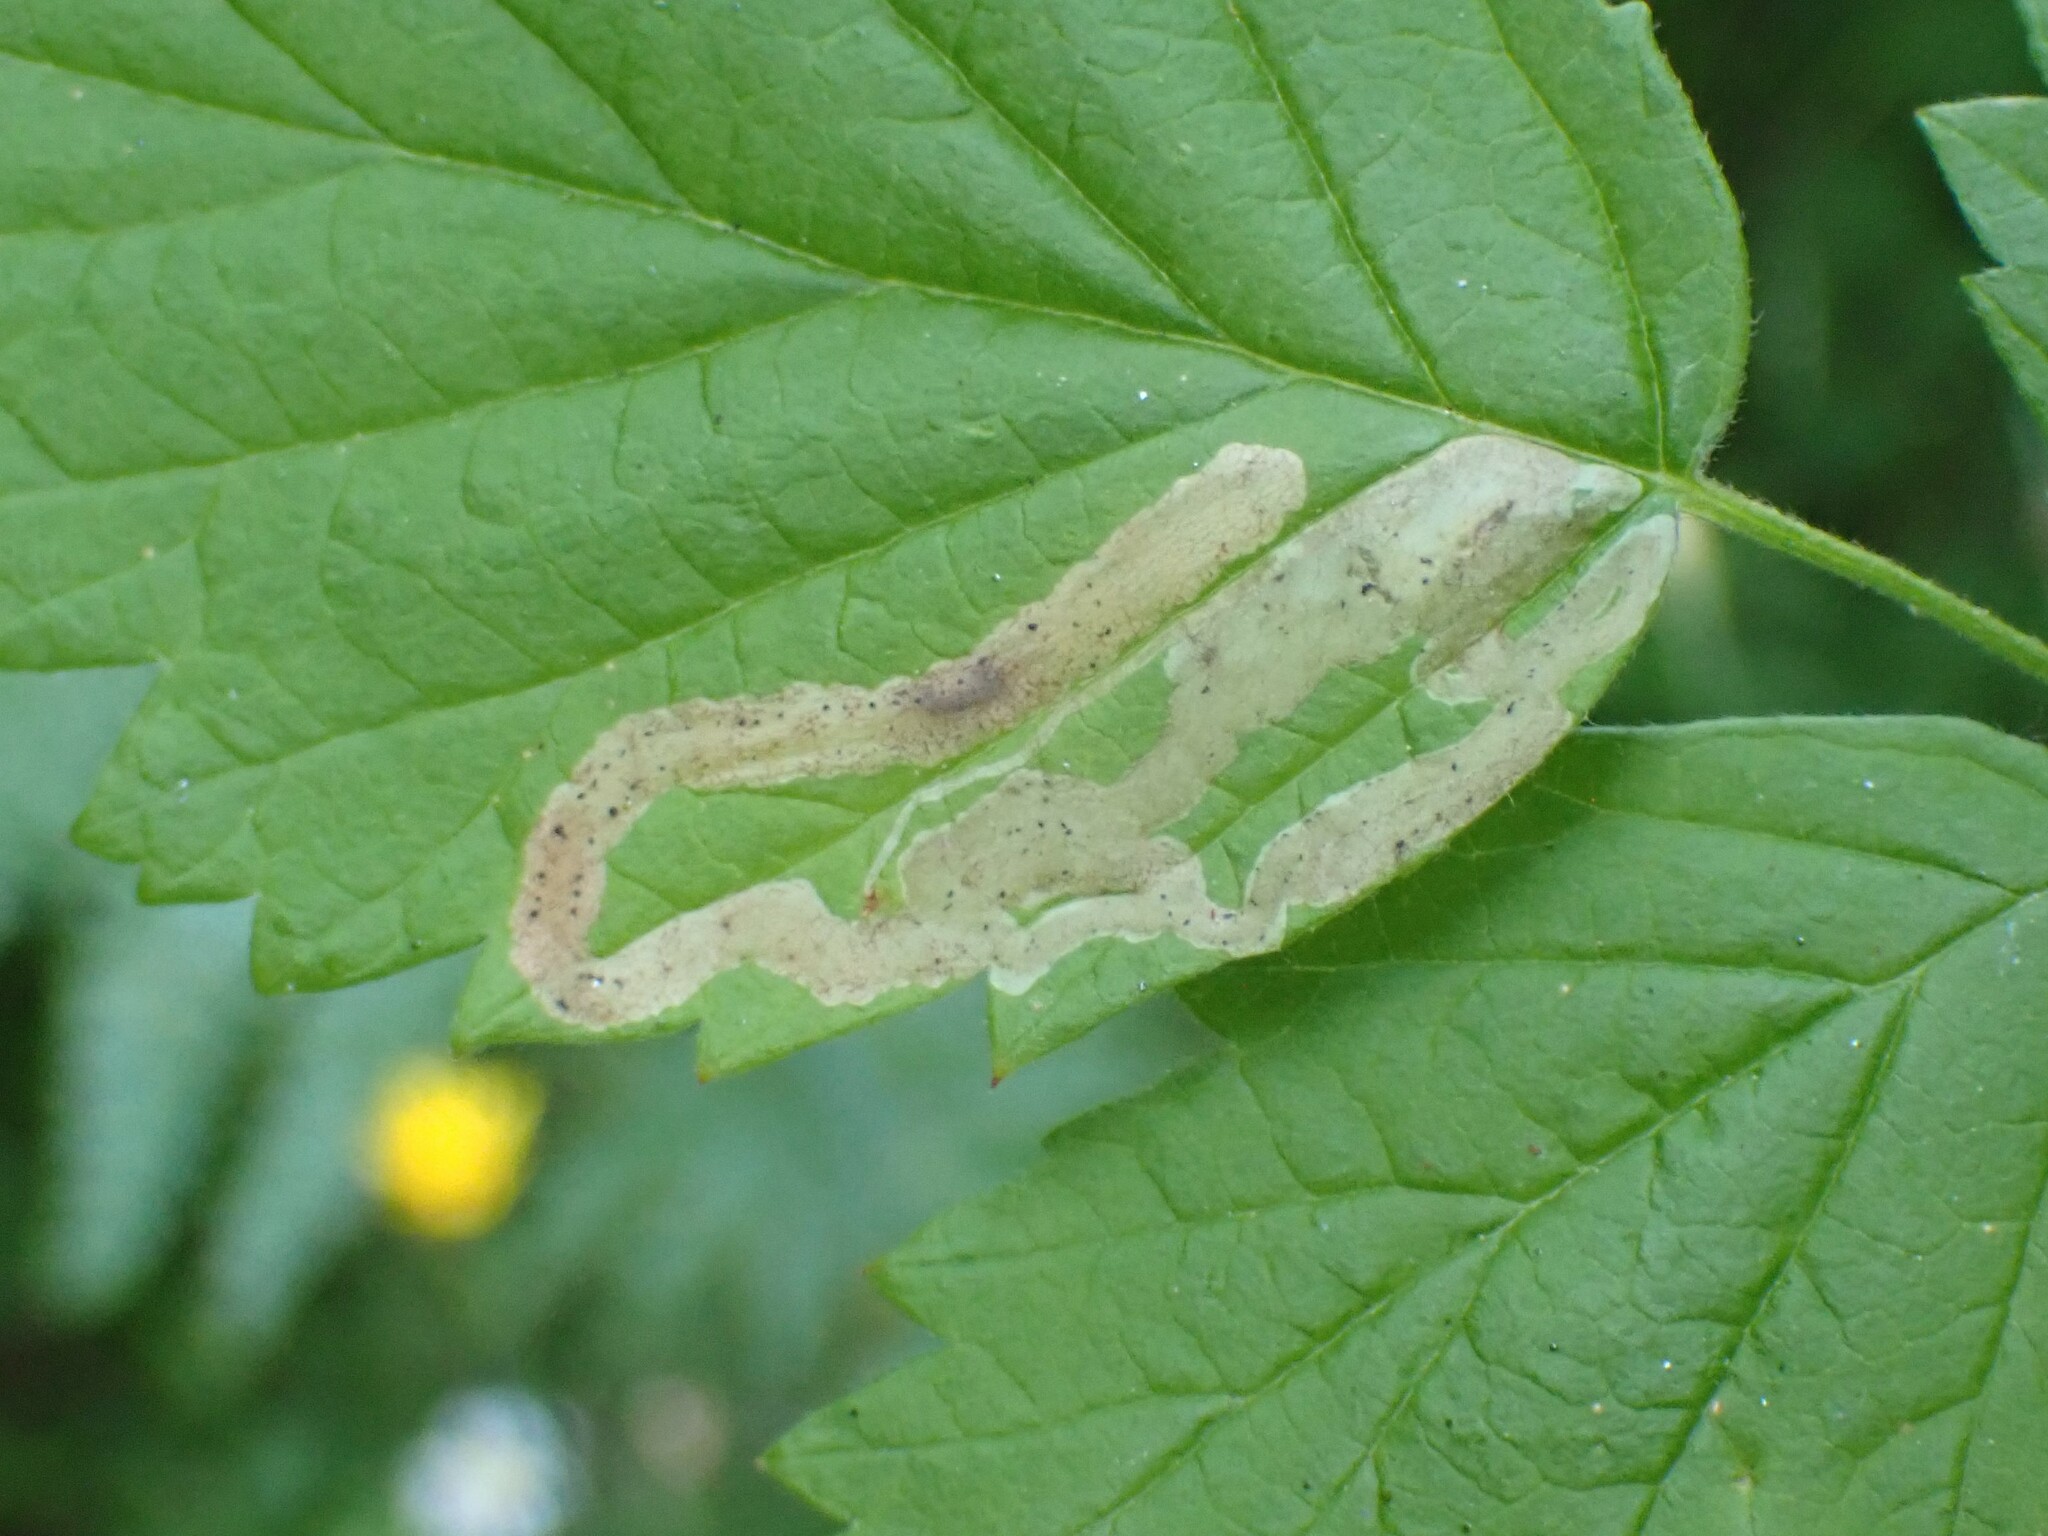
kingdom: Animalia
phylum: Arthropoda
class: Insecta
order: Diptera
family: Agromyzidae
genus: Agromyza
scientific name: Agromyza vockerothi
